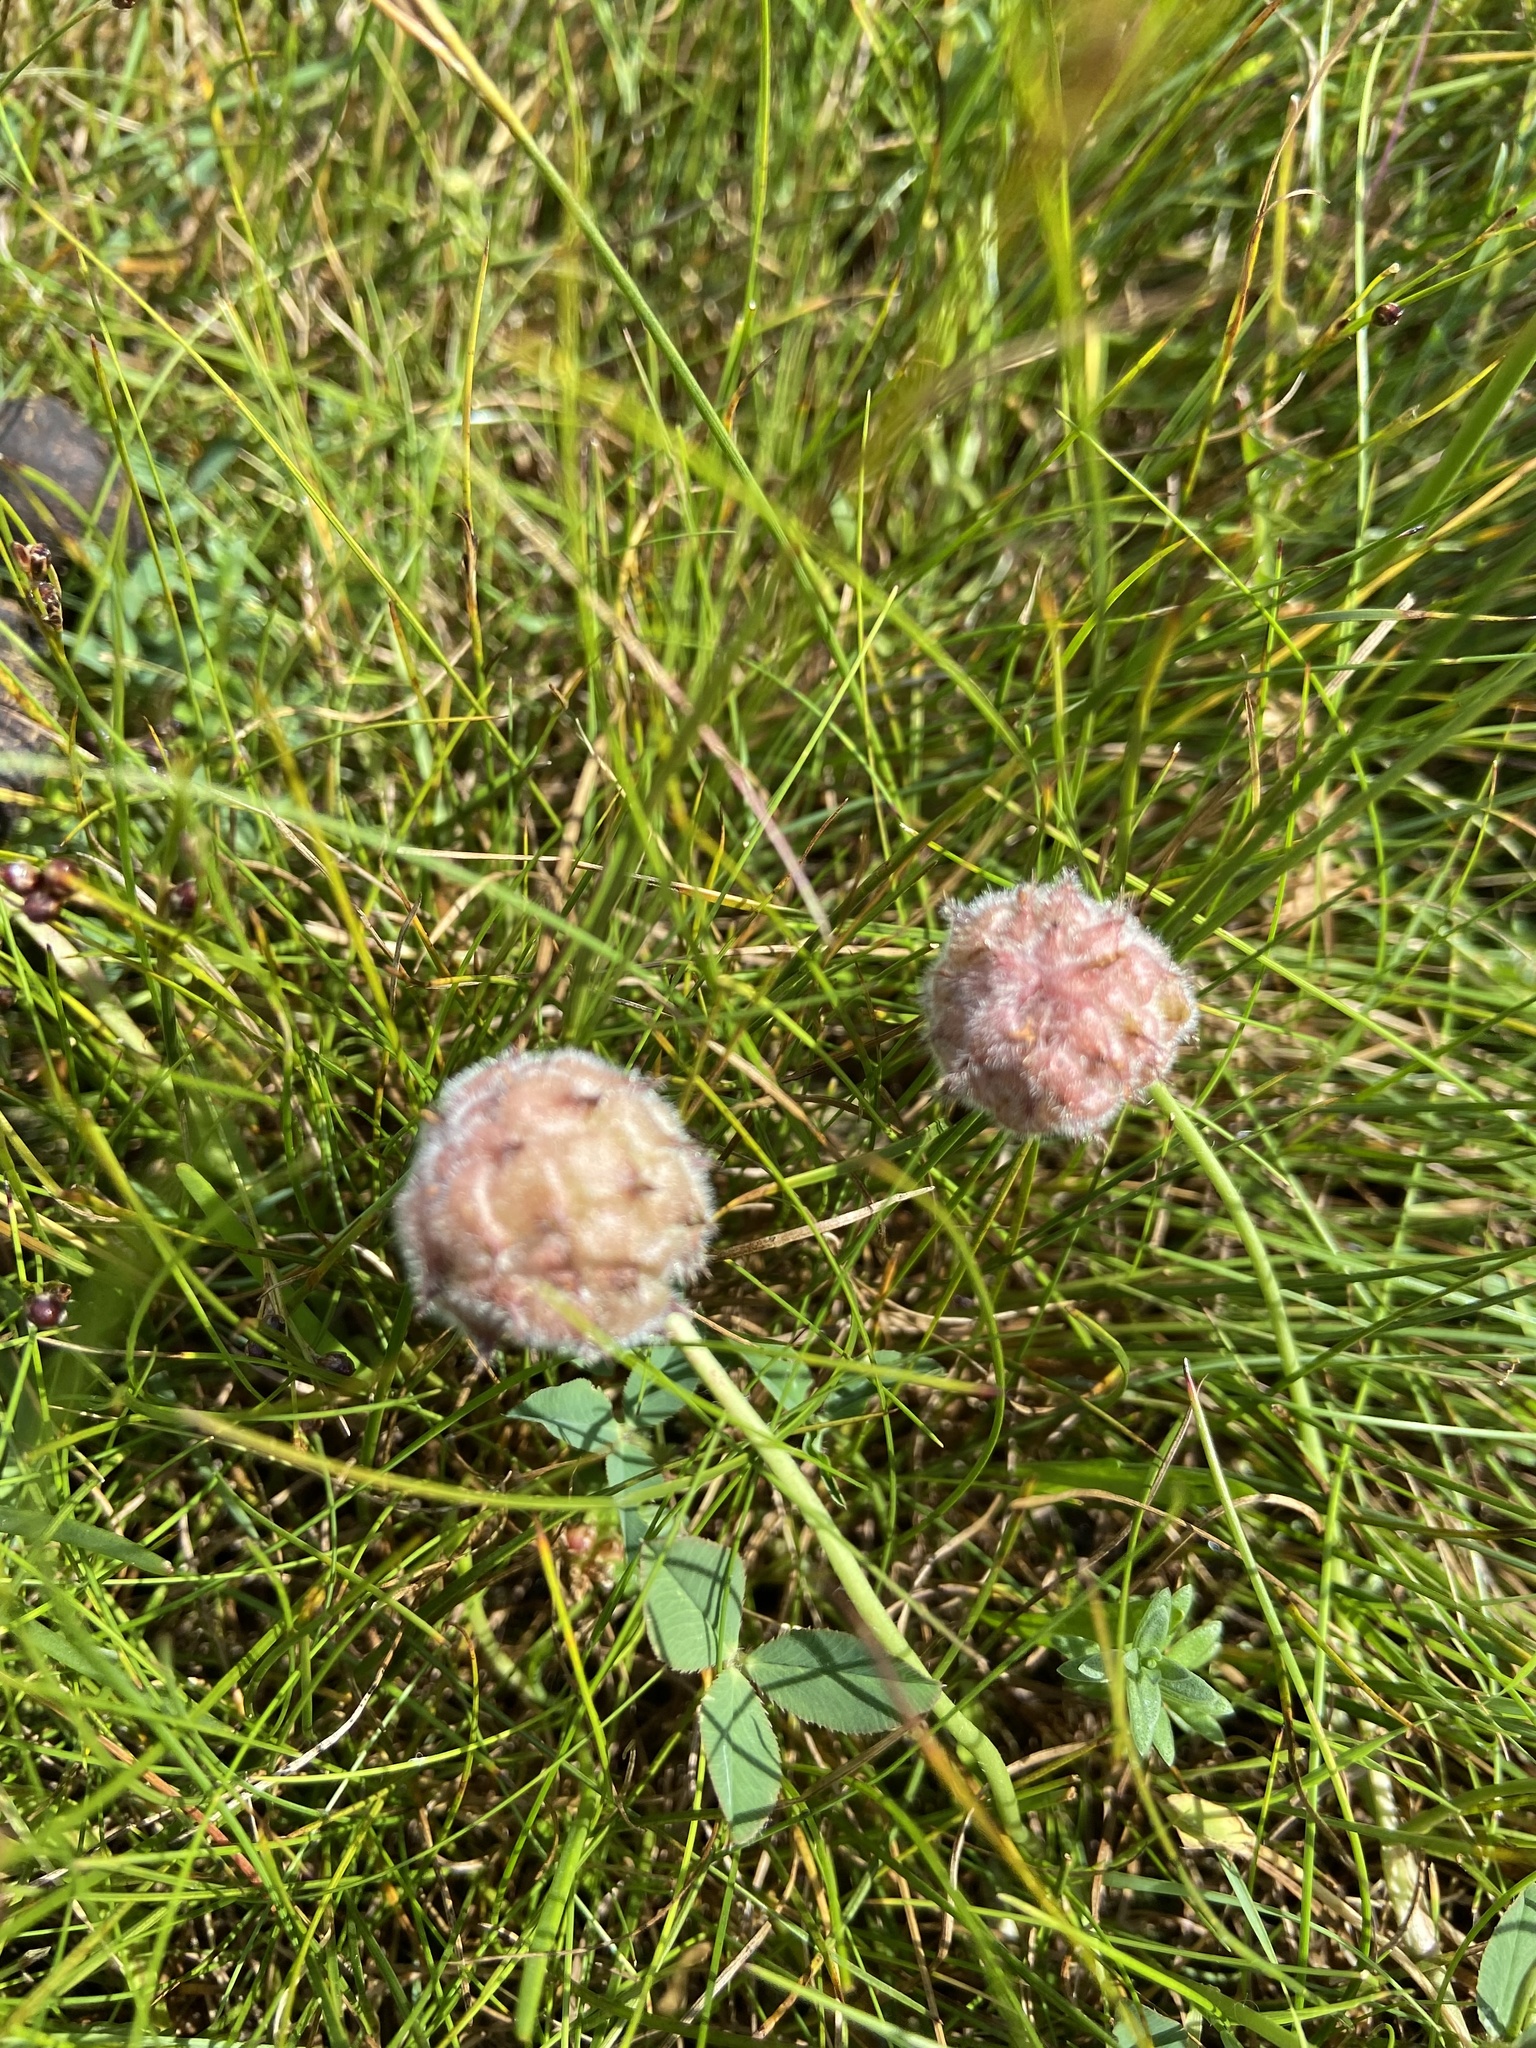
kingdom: Plantae
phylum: Tracheophyta
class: Magnoliopsida
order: Fabales
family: Fabaceae
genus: Trifolium
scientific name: Trifolium fragiferum
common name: Strawberry clover
